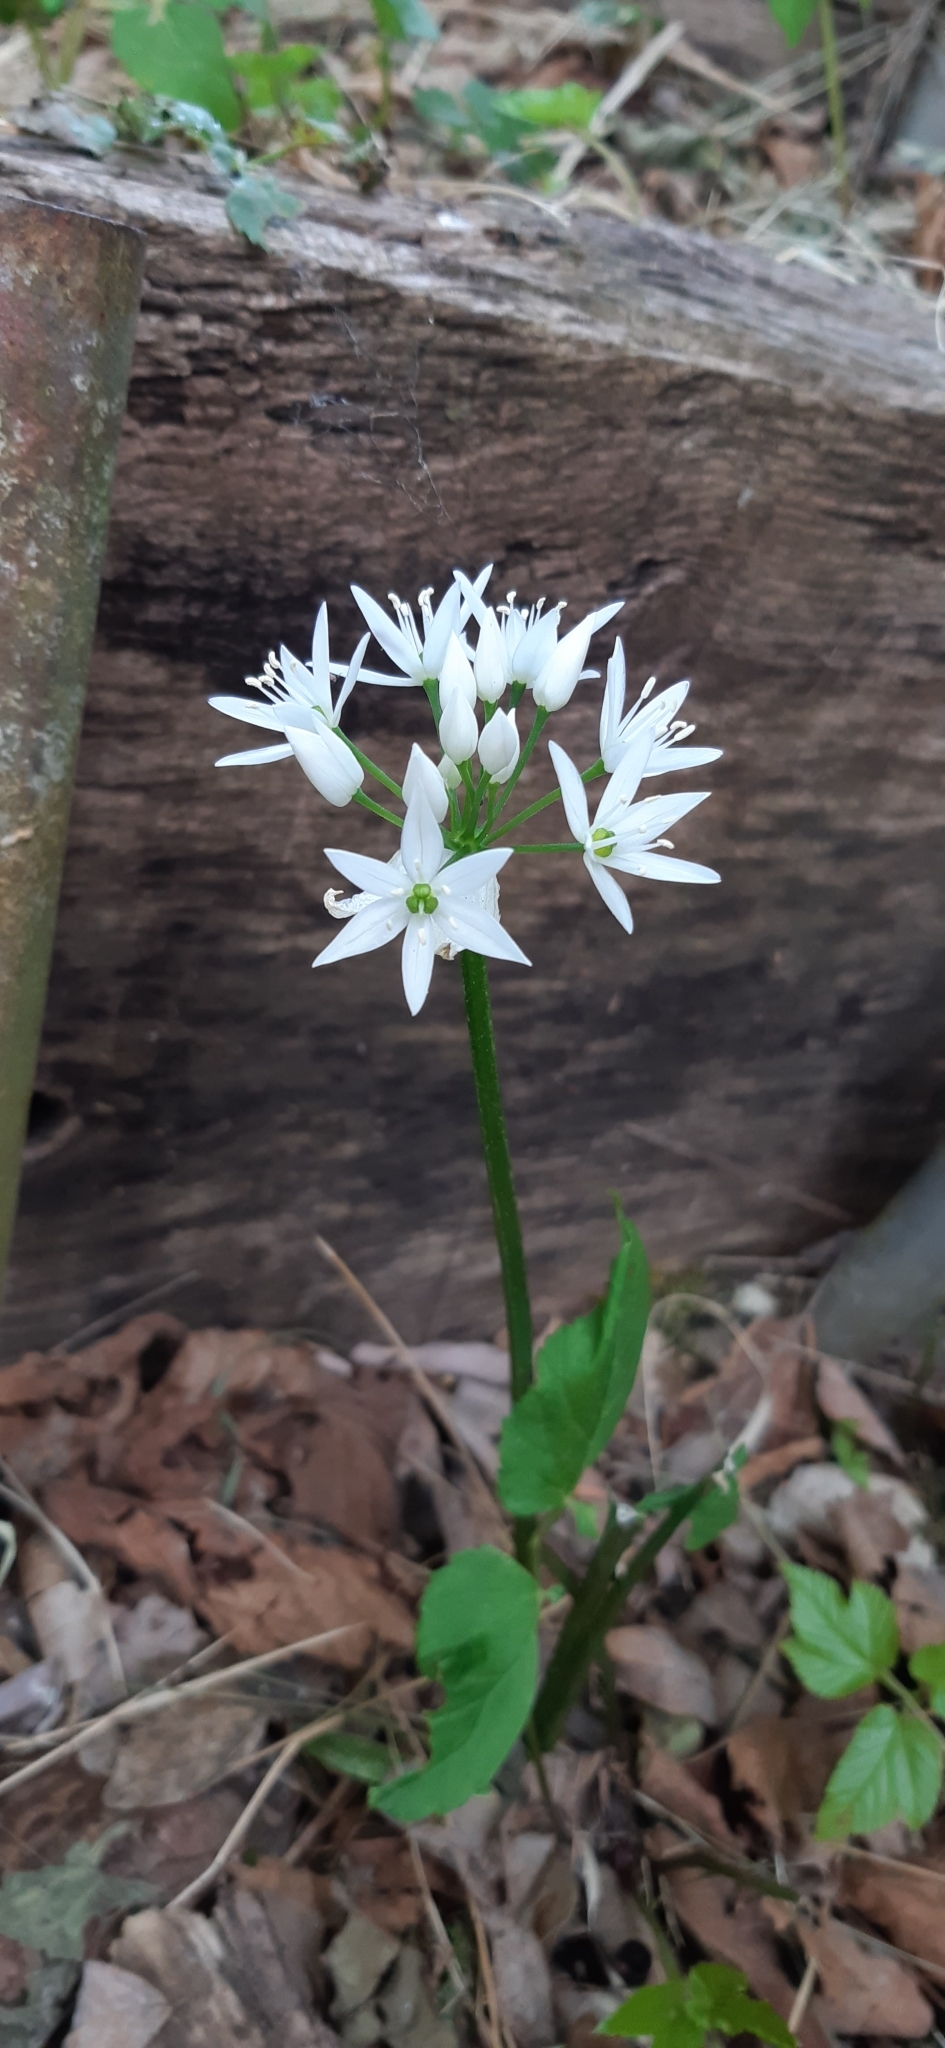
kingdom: Plantae
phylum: Tracheophyta
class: Liliopsida
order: Asparagales
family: Amaryllidaceae
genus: Allium
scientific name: Allium ursinum
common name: Ramsons
